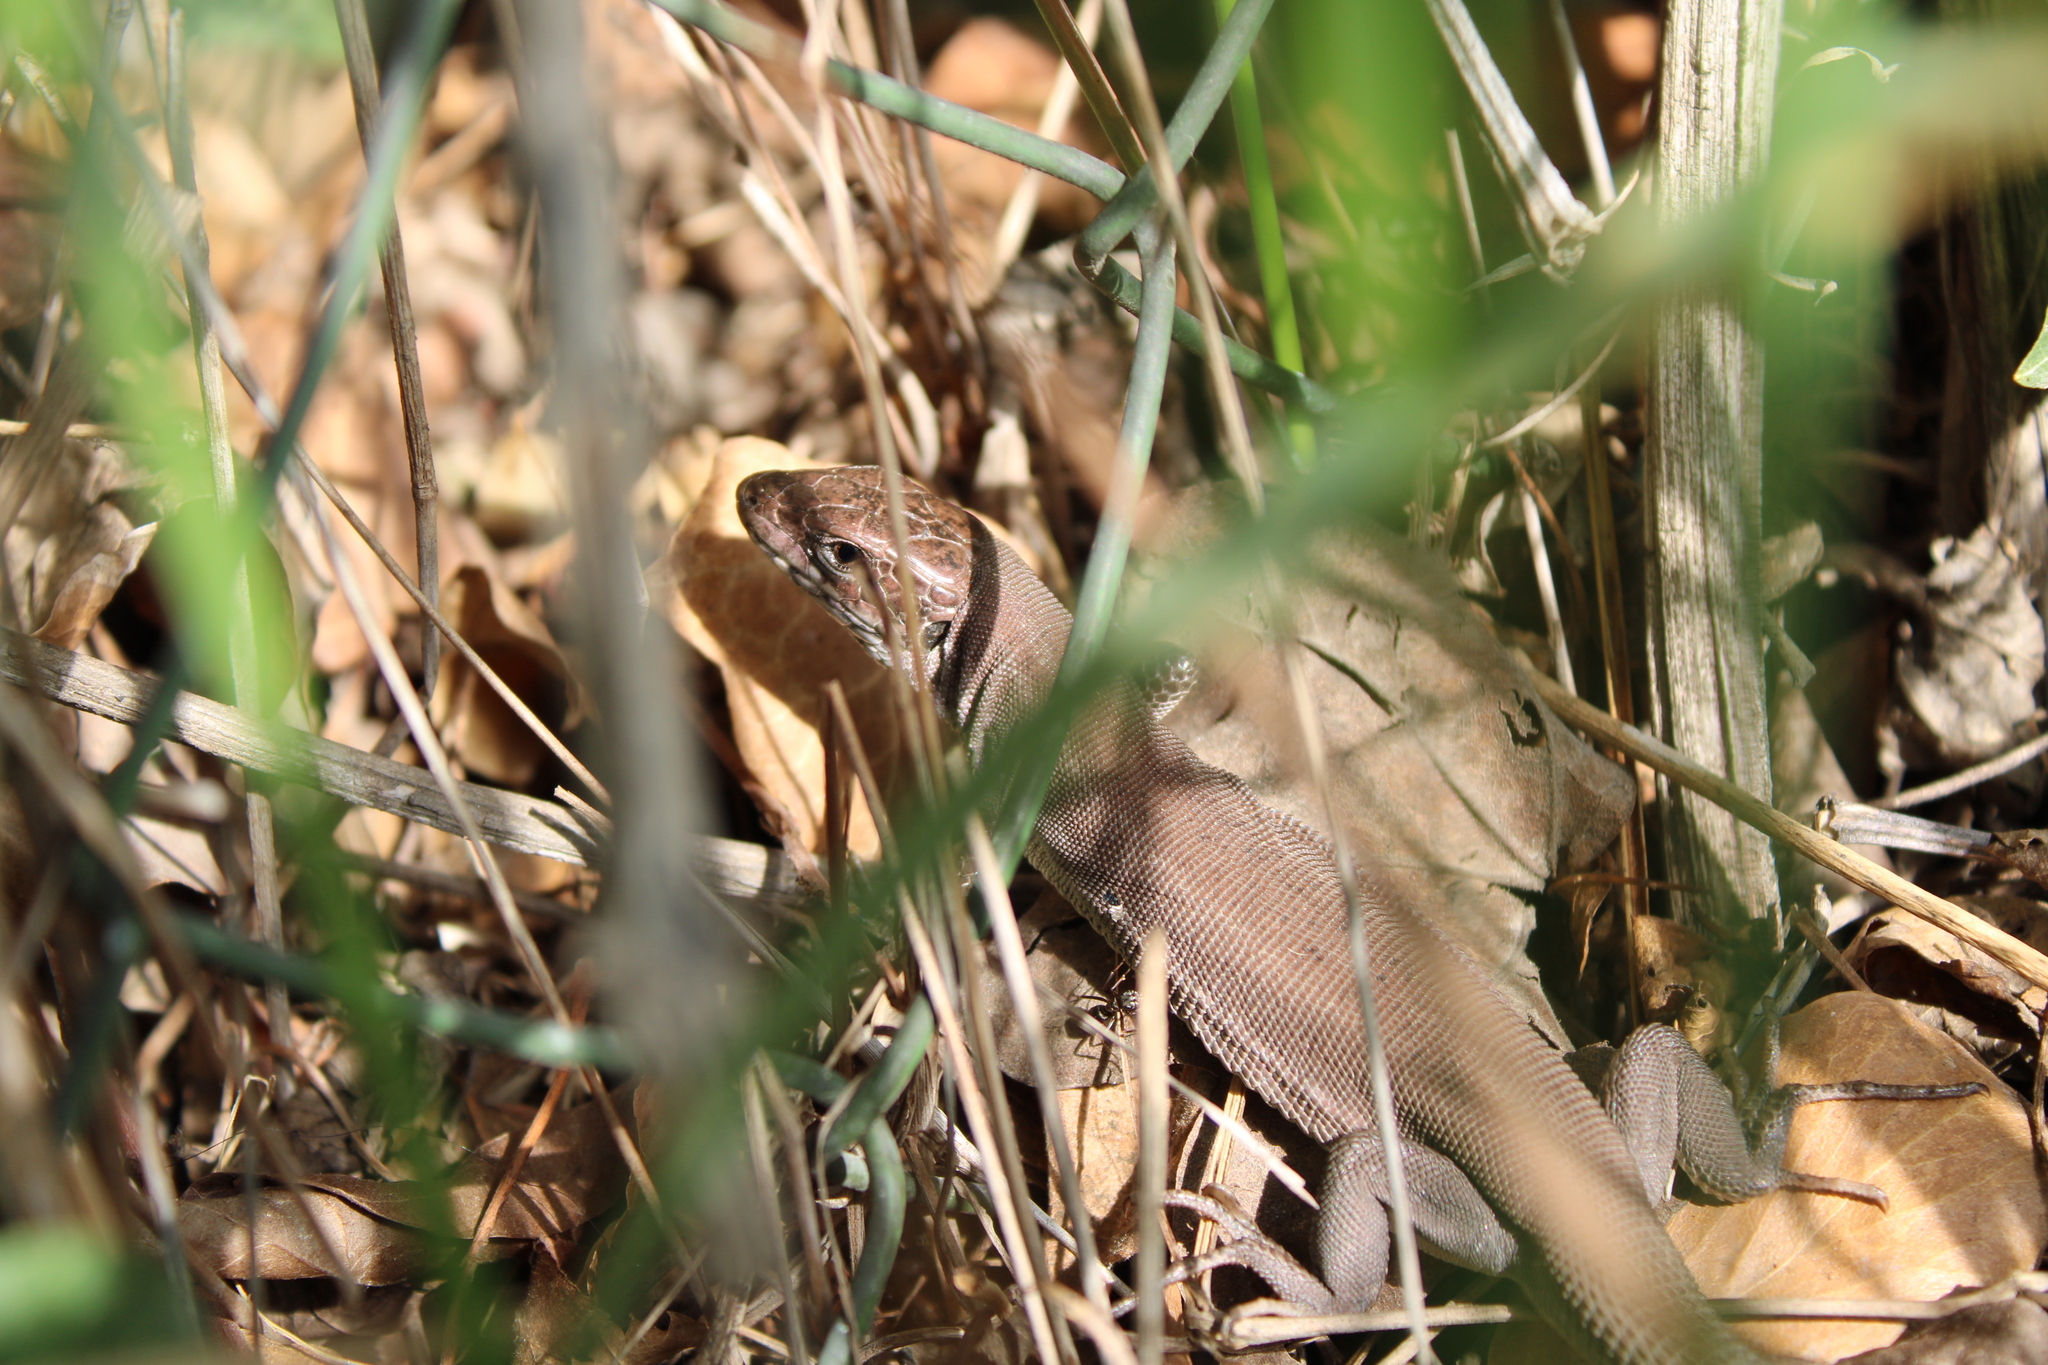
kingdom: Animalia
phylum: Chordata
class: Squamata
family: Lacertidae
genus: Lacerta
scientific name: Lacerta viridis
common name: European green lizard
